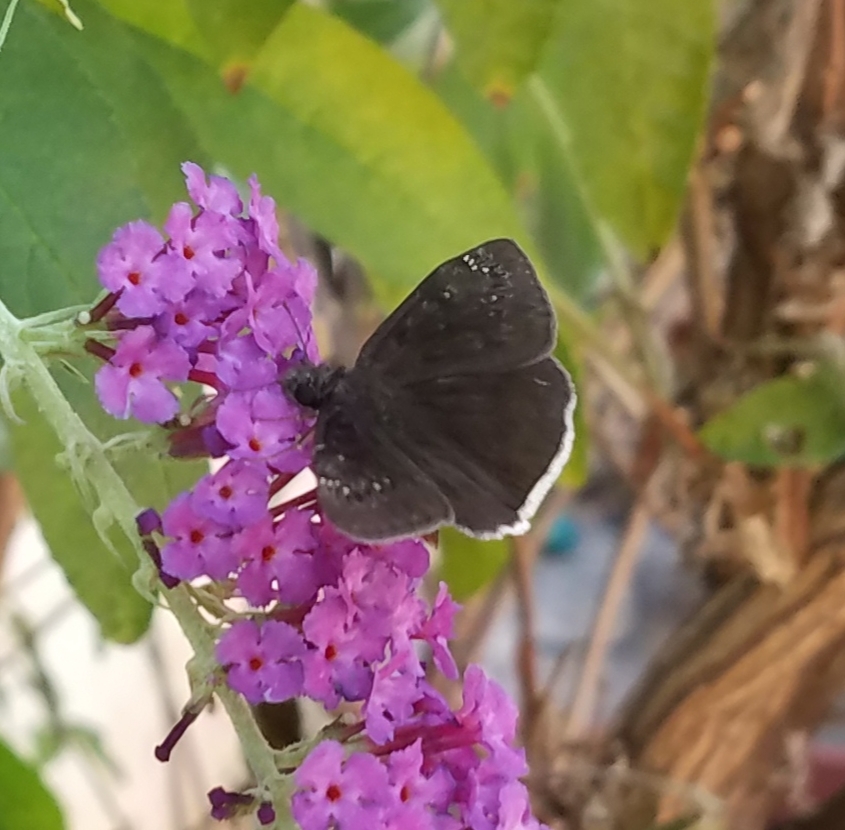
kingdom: Animalia
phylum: Arthropoda
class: Insecta
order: Lepidoptera
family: Hesperiidae
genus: Erynnis
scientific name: Erynnis funeralis
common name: Funereal duskywing
